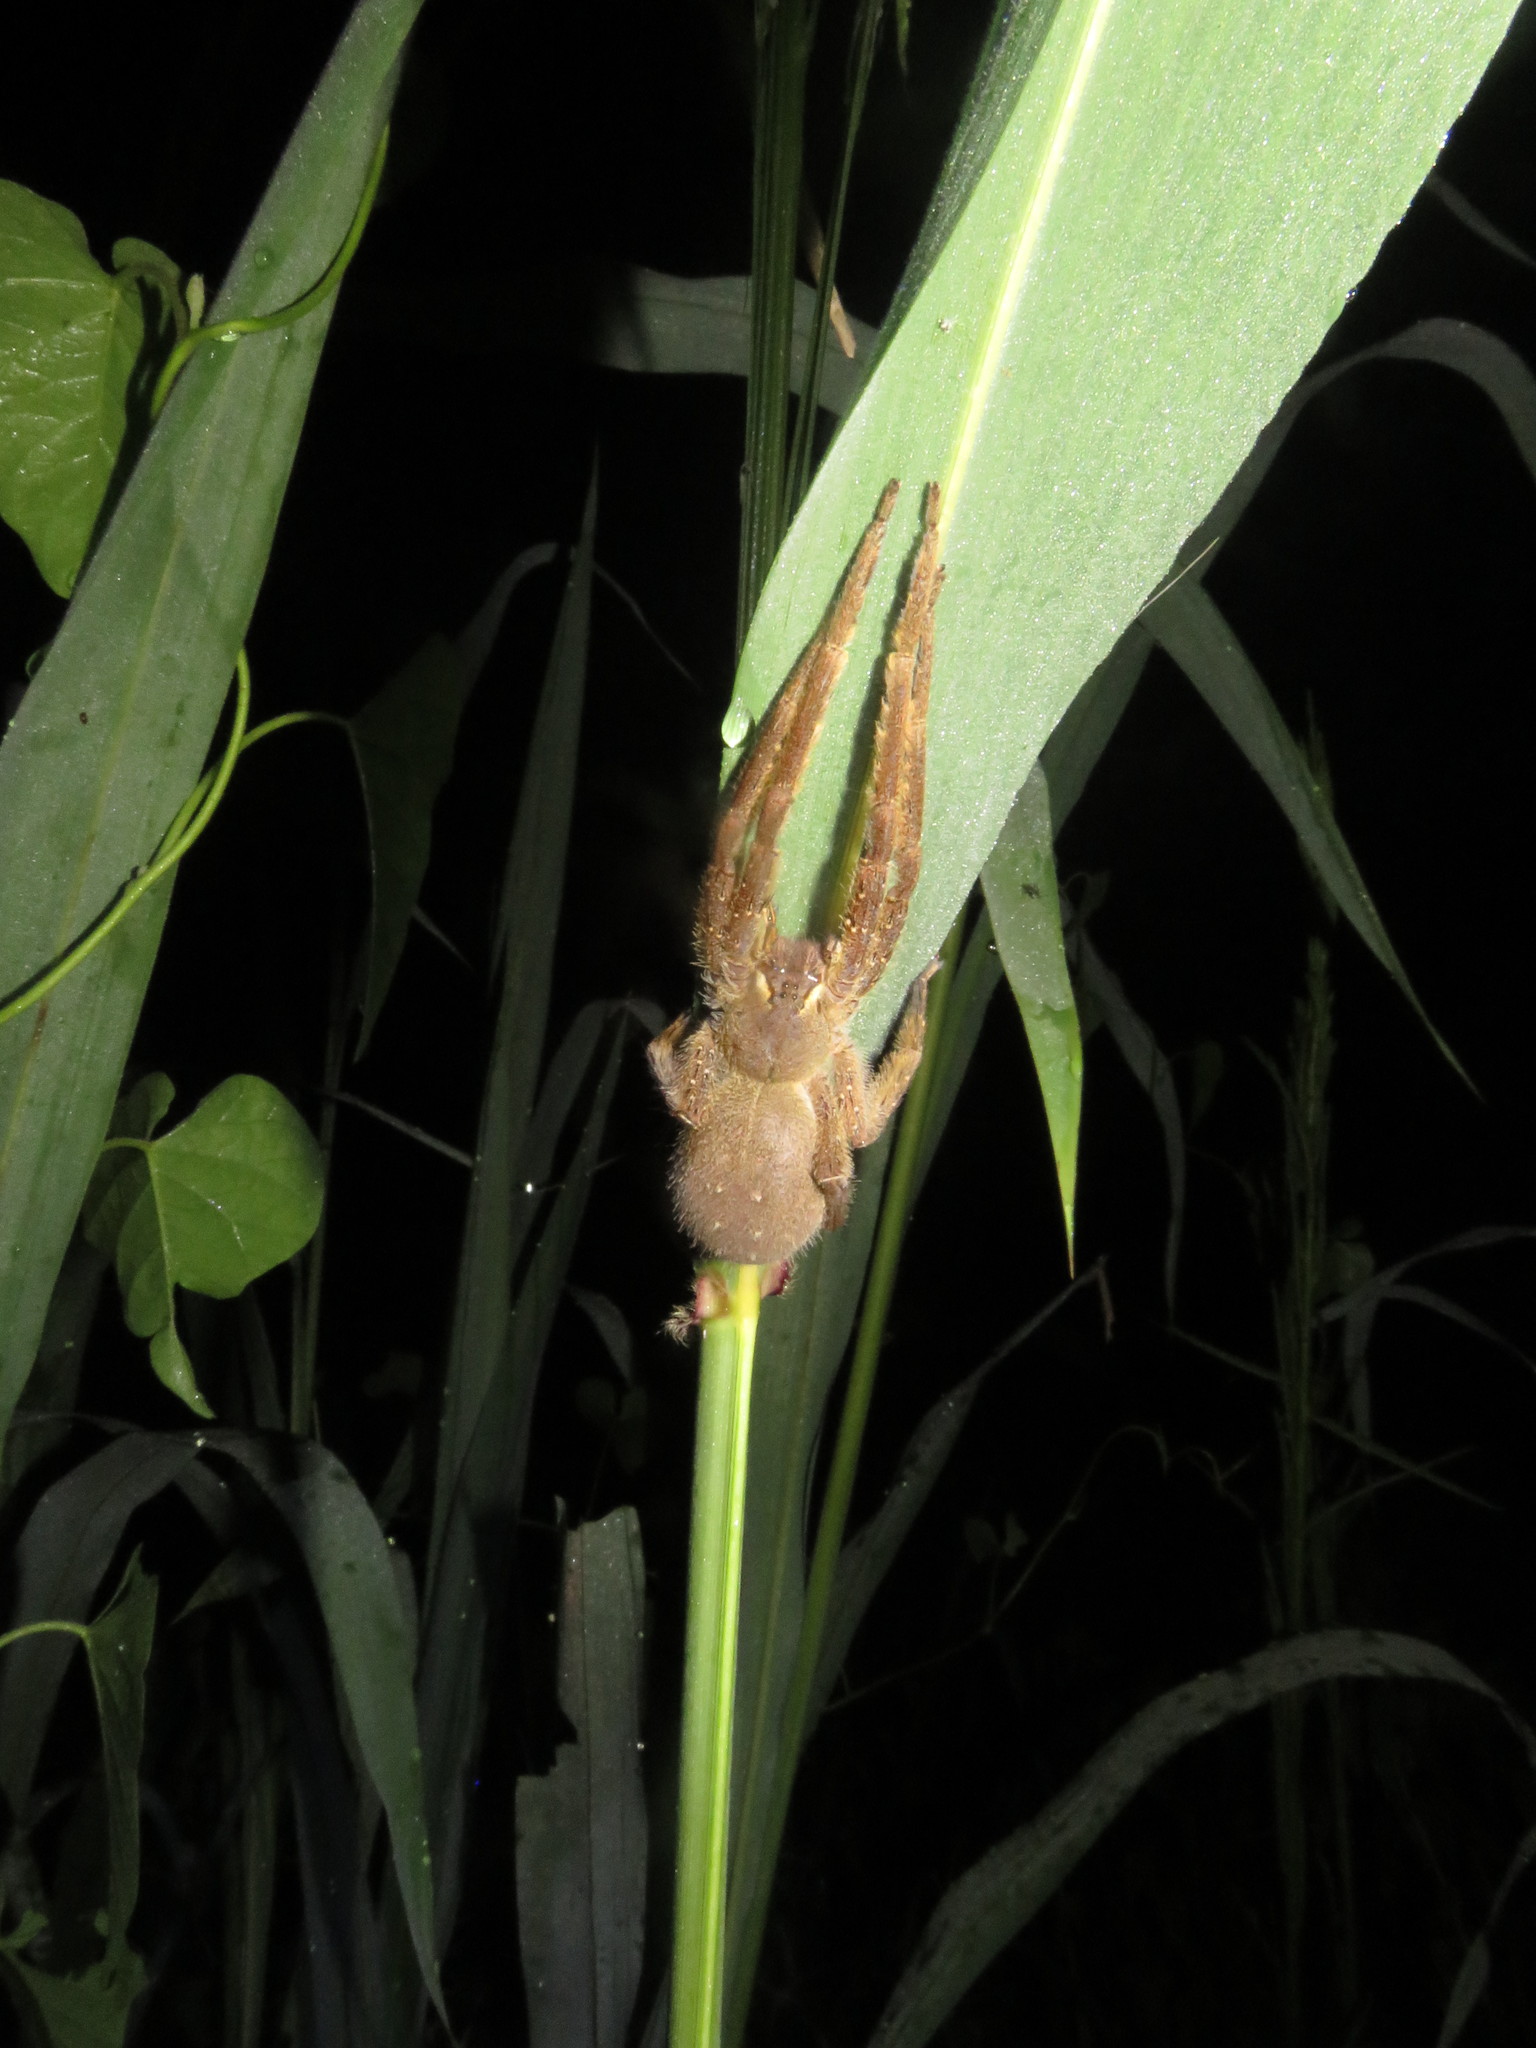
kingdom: Animalia
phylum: Arthropoda
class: Arachnida
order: Araneae
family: Ctenidae
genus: Phoneutria
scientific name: Phoneutria boliviensis
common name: Wandering spiders
